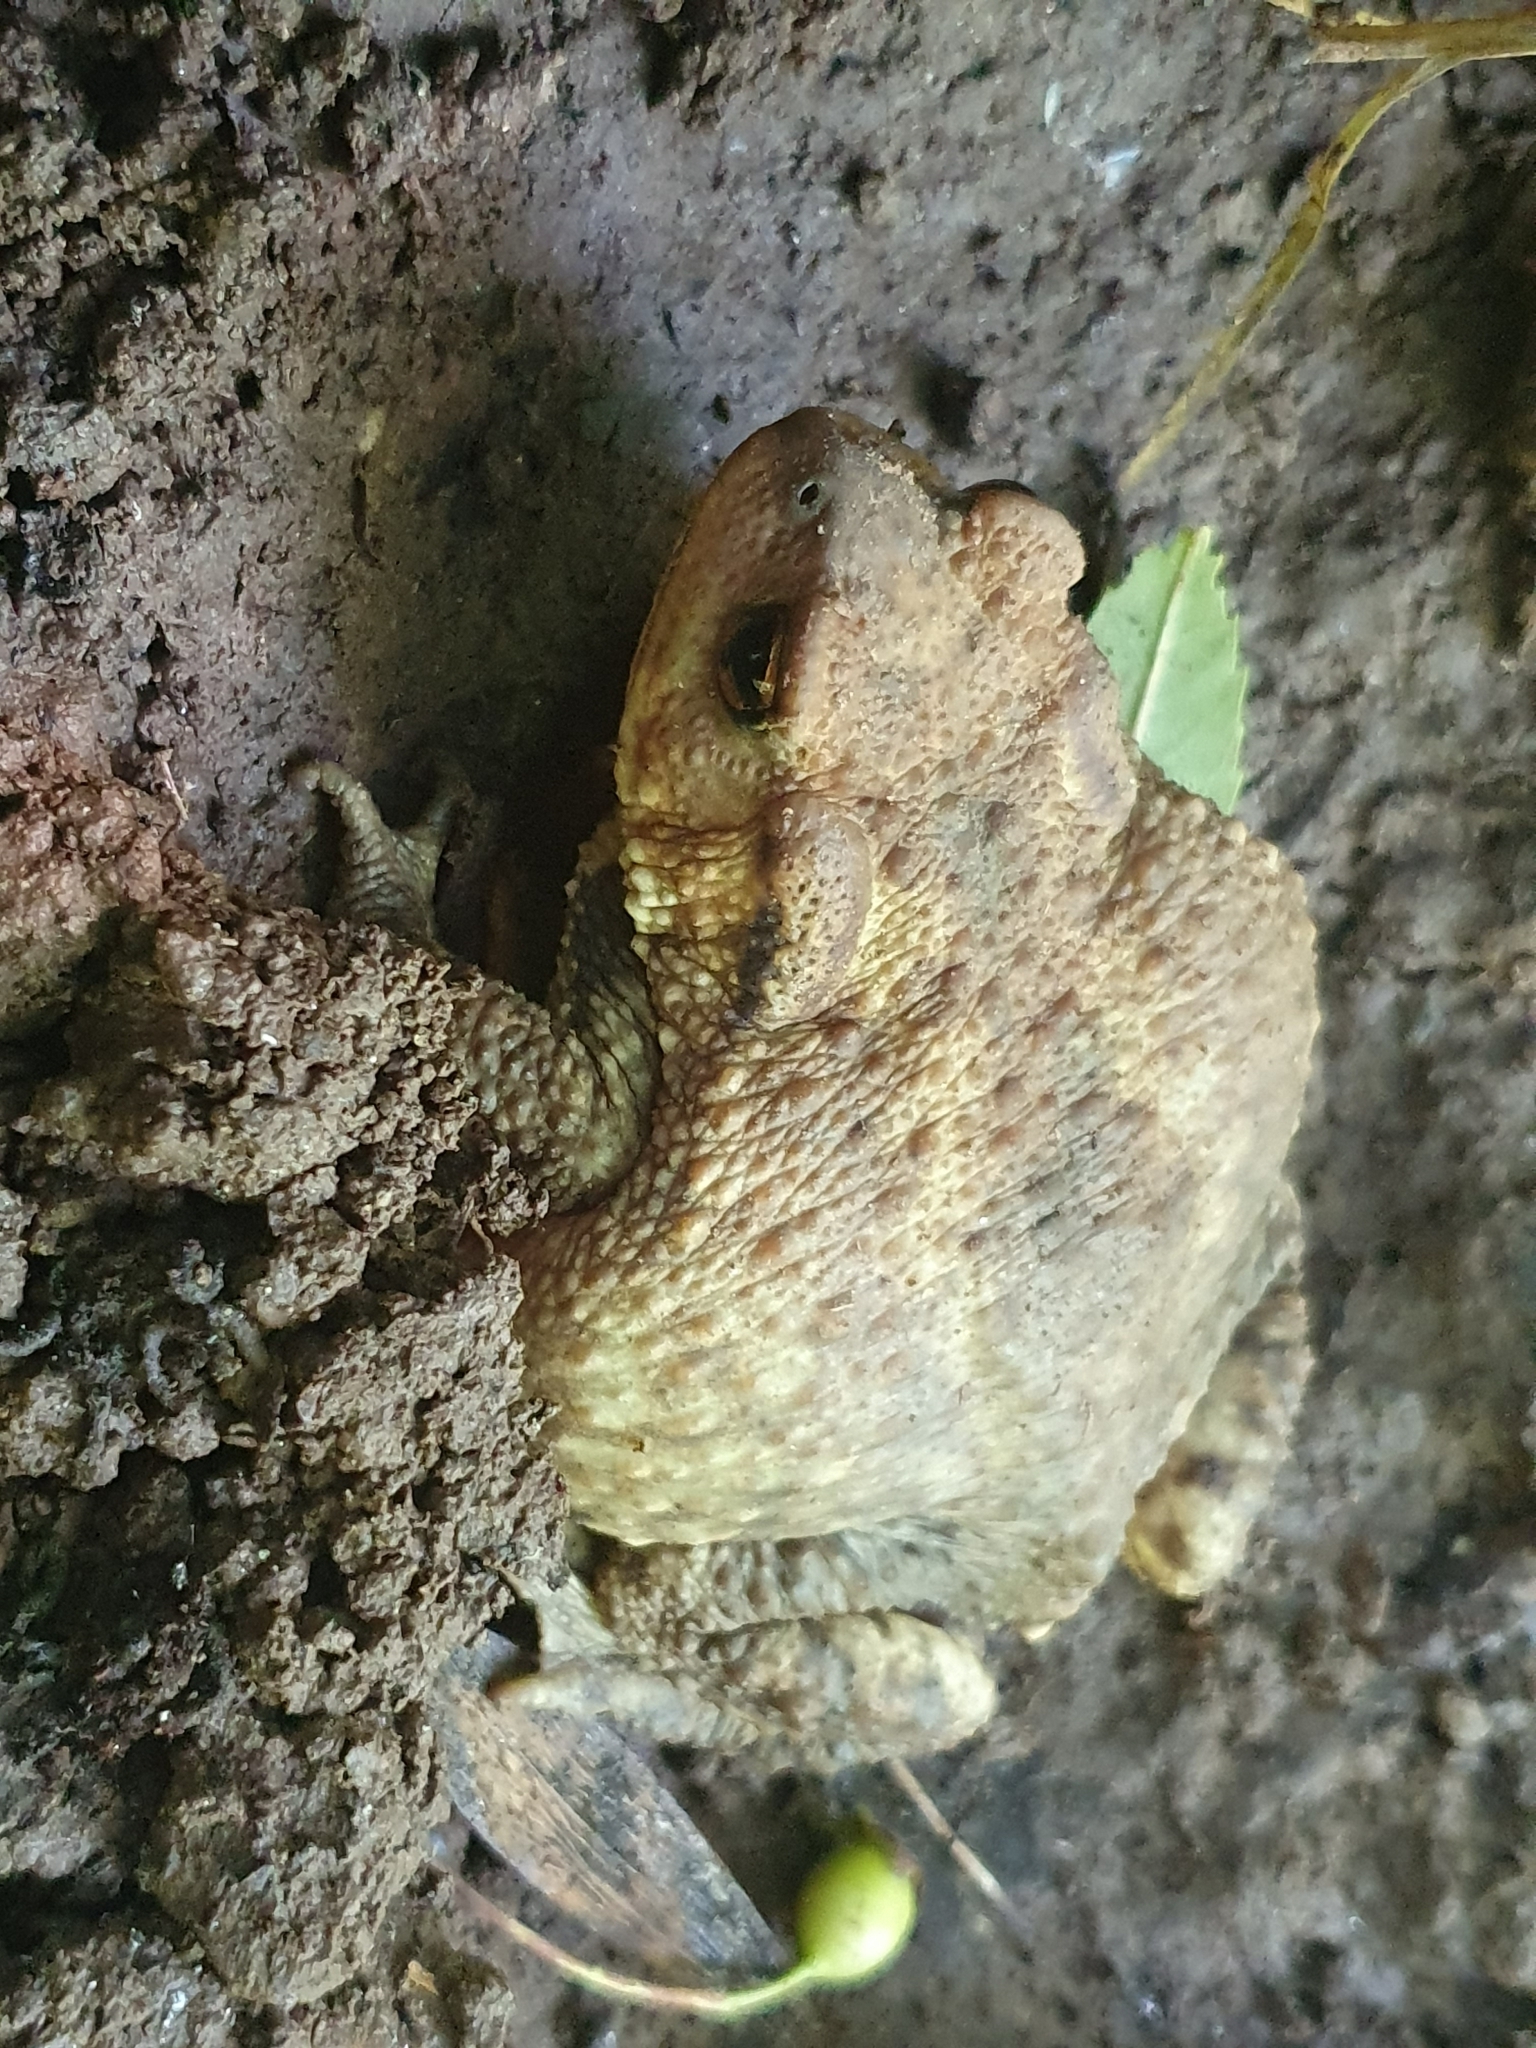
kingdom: Animalia
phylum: Chordata
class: Amphibia
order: Anura
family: Bufonidae
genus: Bufo
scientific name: Bufo spinosus
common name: Western common toad
